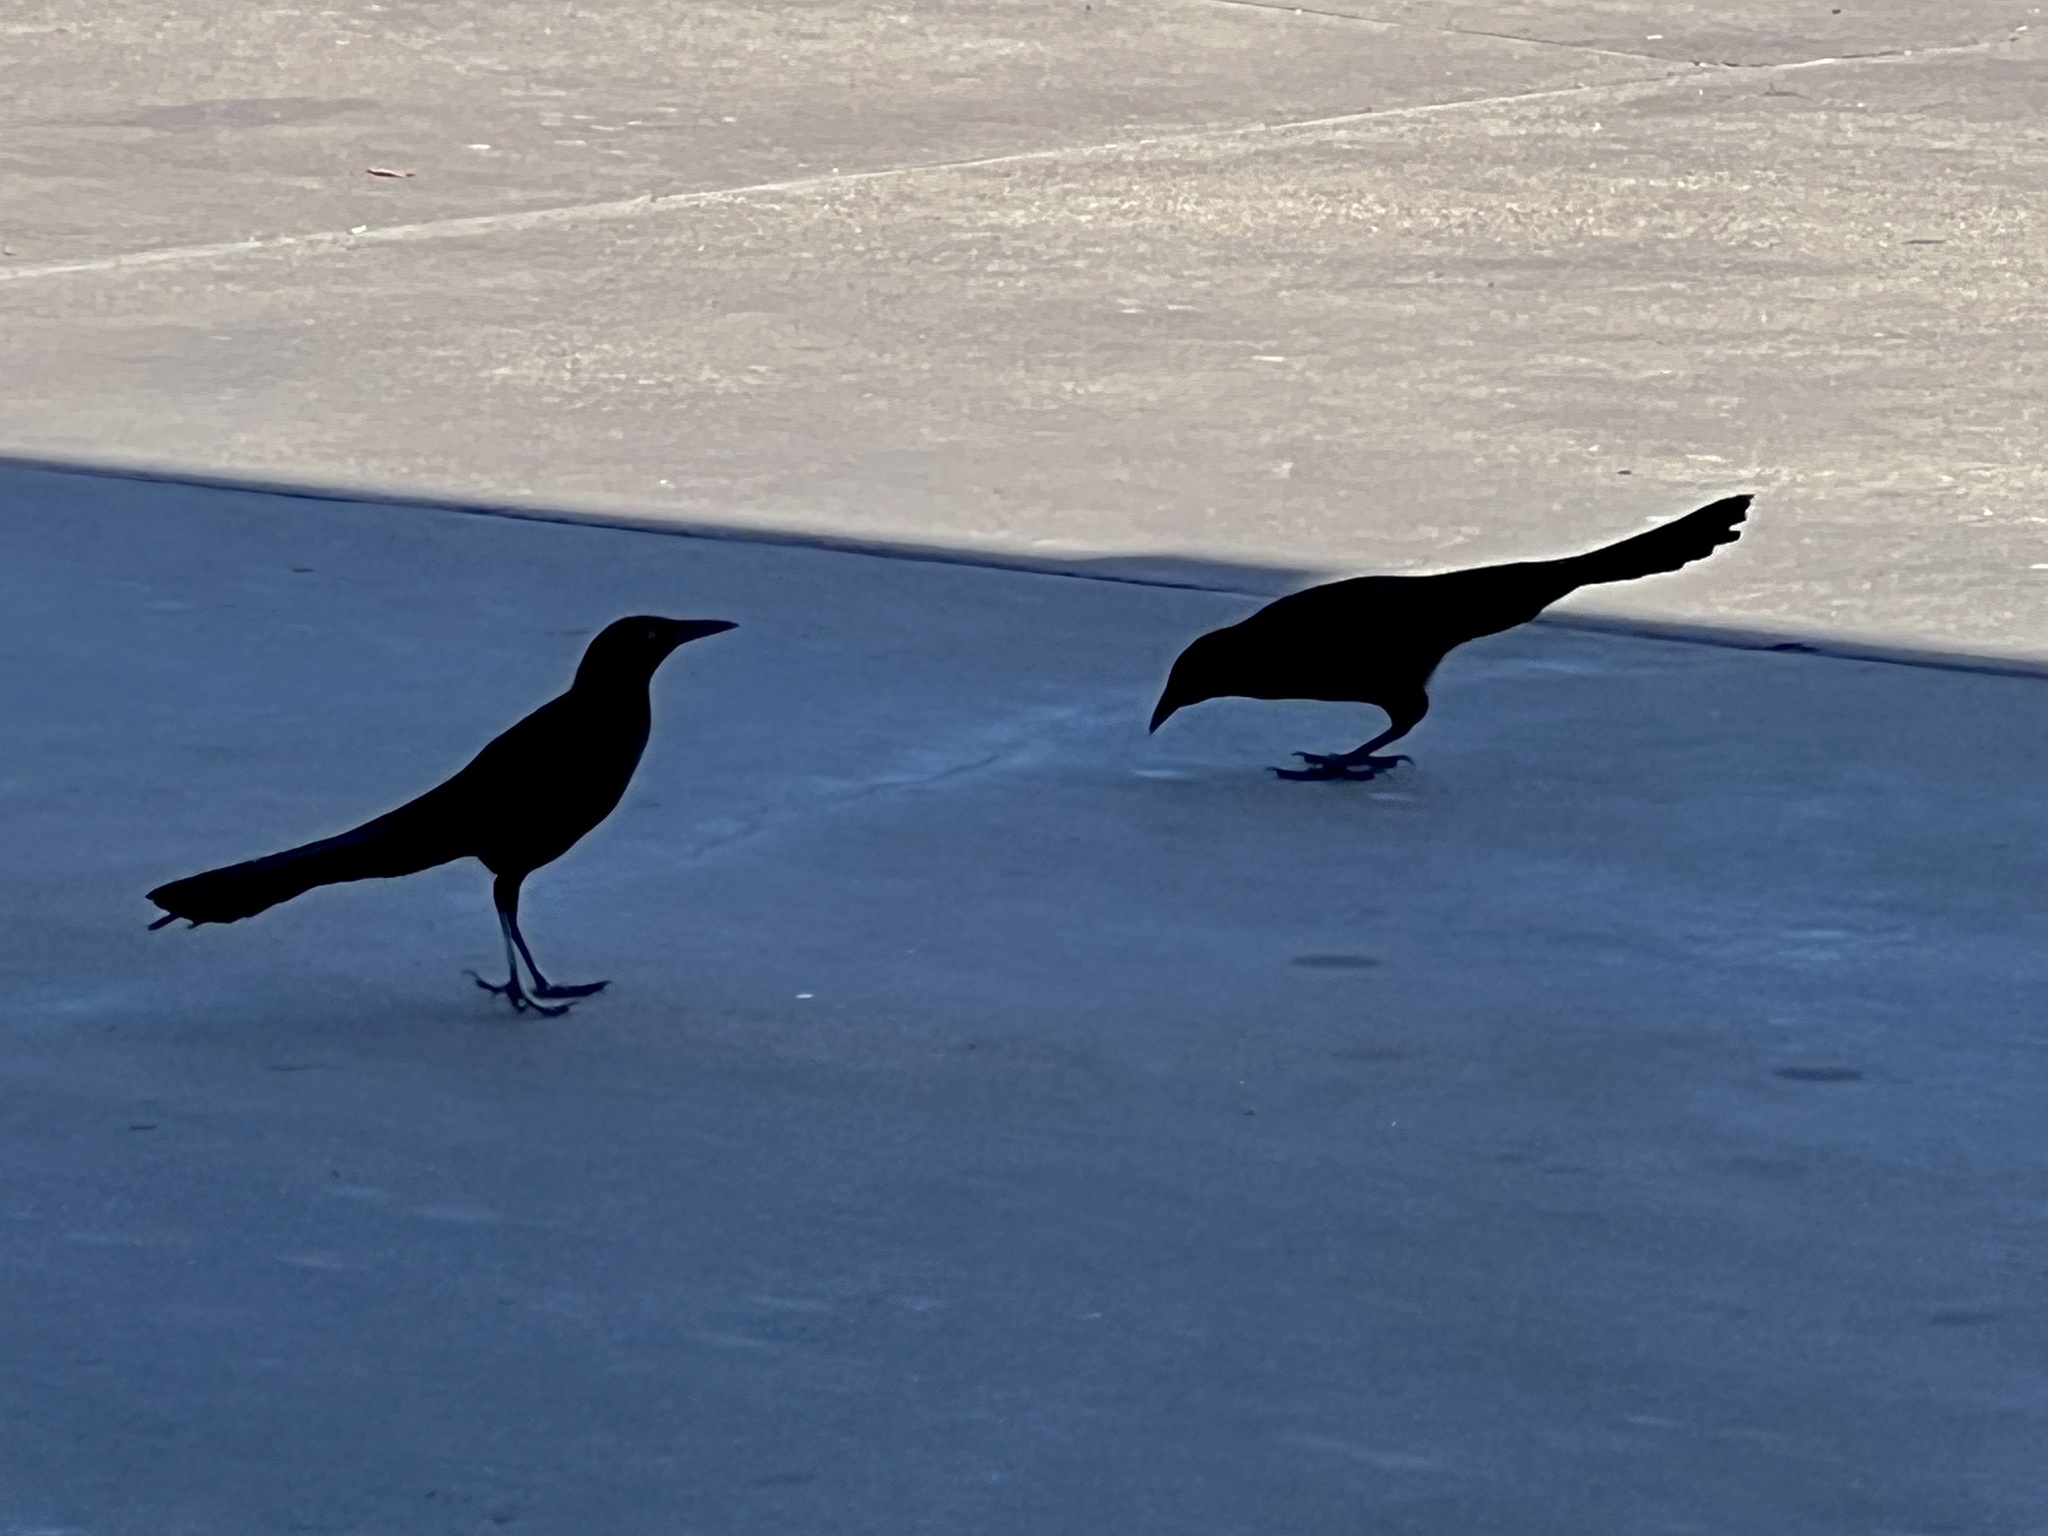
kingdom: Animalia
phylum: Chordata
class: Aves
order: Passeriformes
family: Icteridae
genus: Quiscalus
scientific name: Quiscalus mexicanus
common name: Great-tailed grackle
